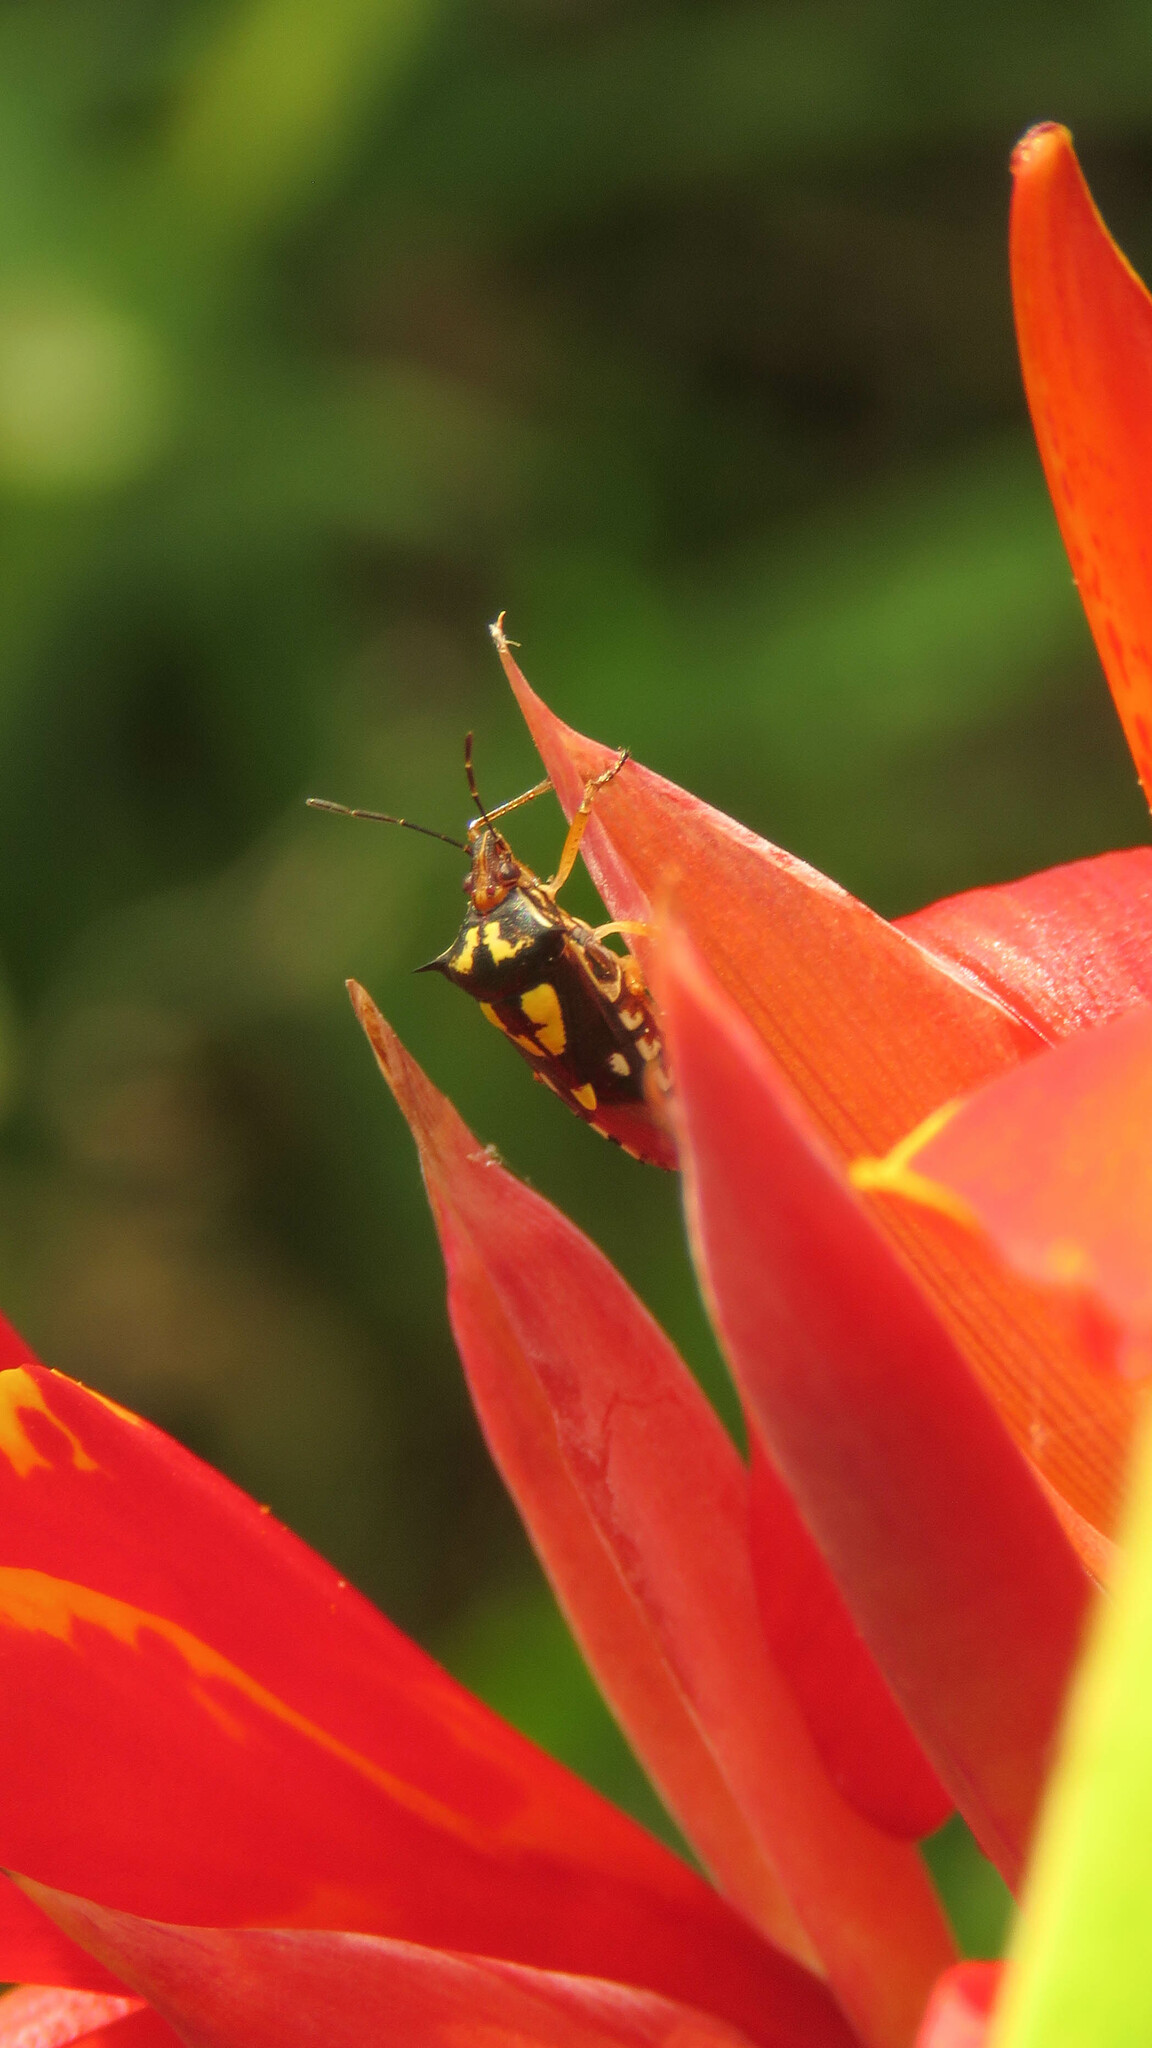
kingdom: Animalia
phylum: Arthropoda
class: Insecta
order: Hemiptera
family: Pentatomidae
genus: Oebalus
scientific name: Oebalus poecilus
